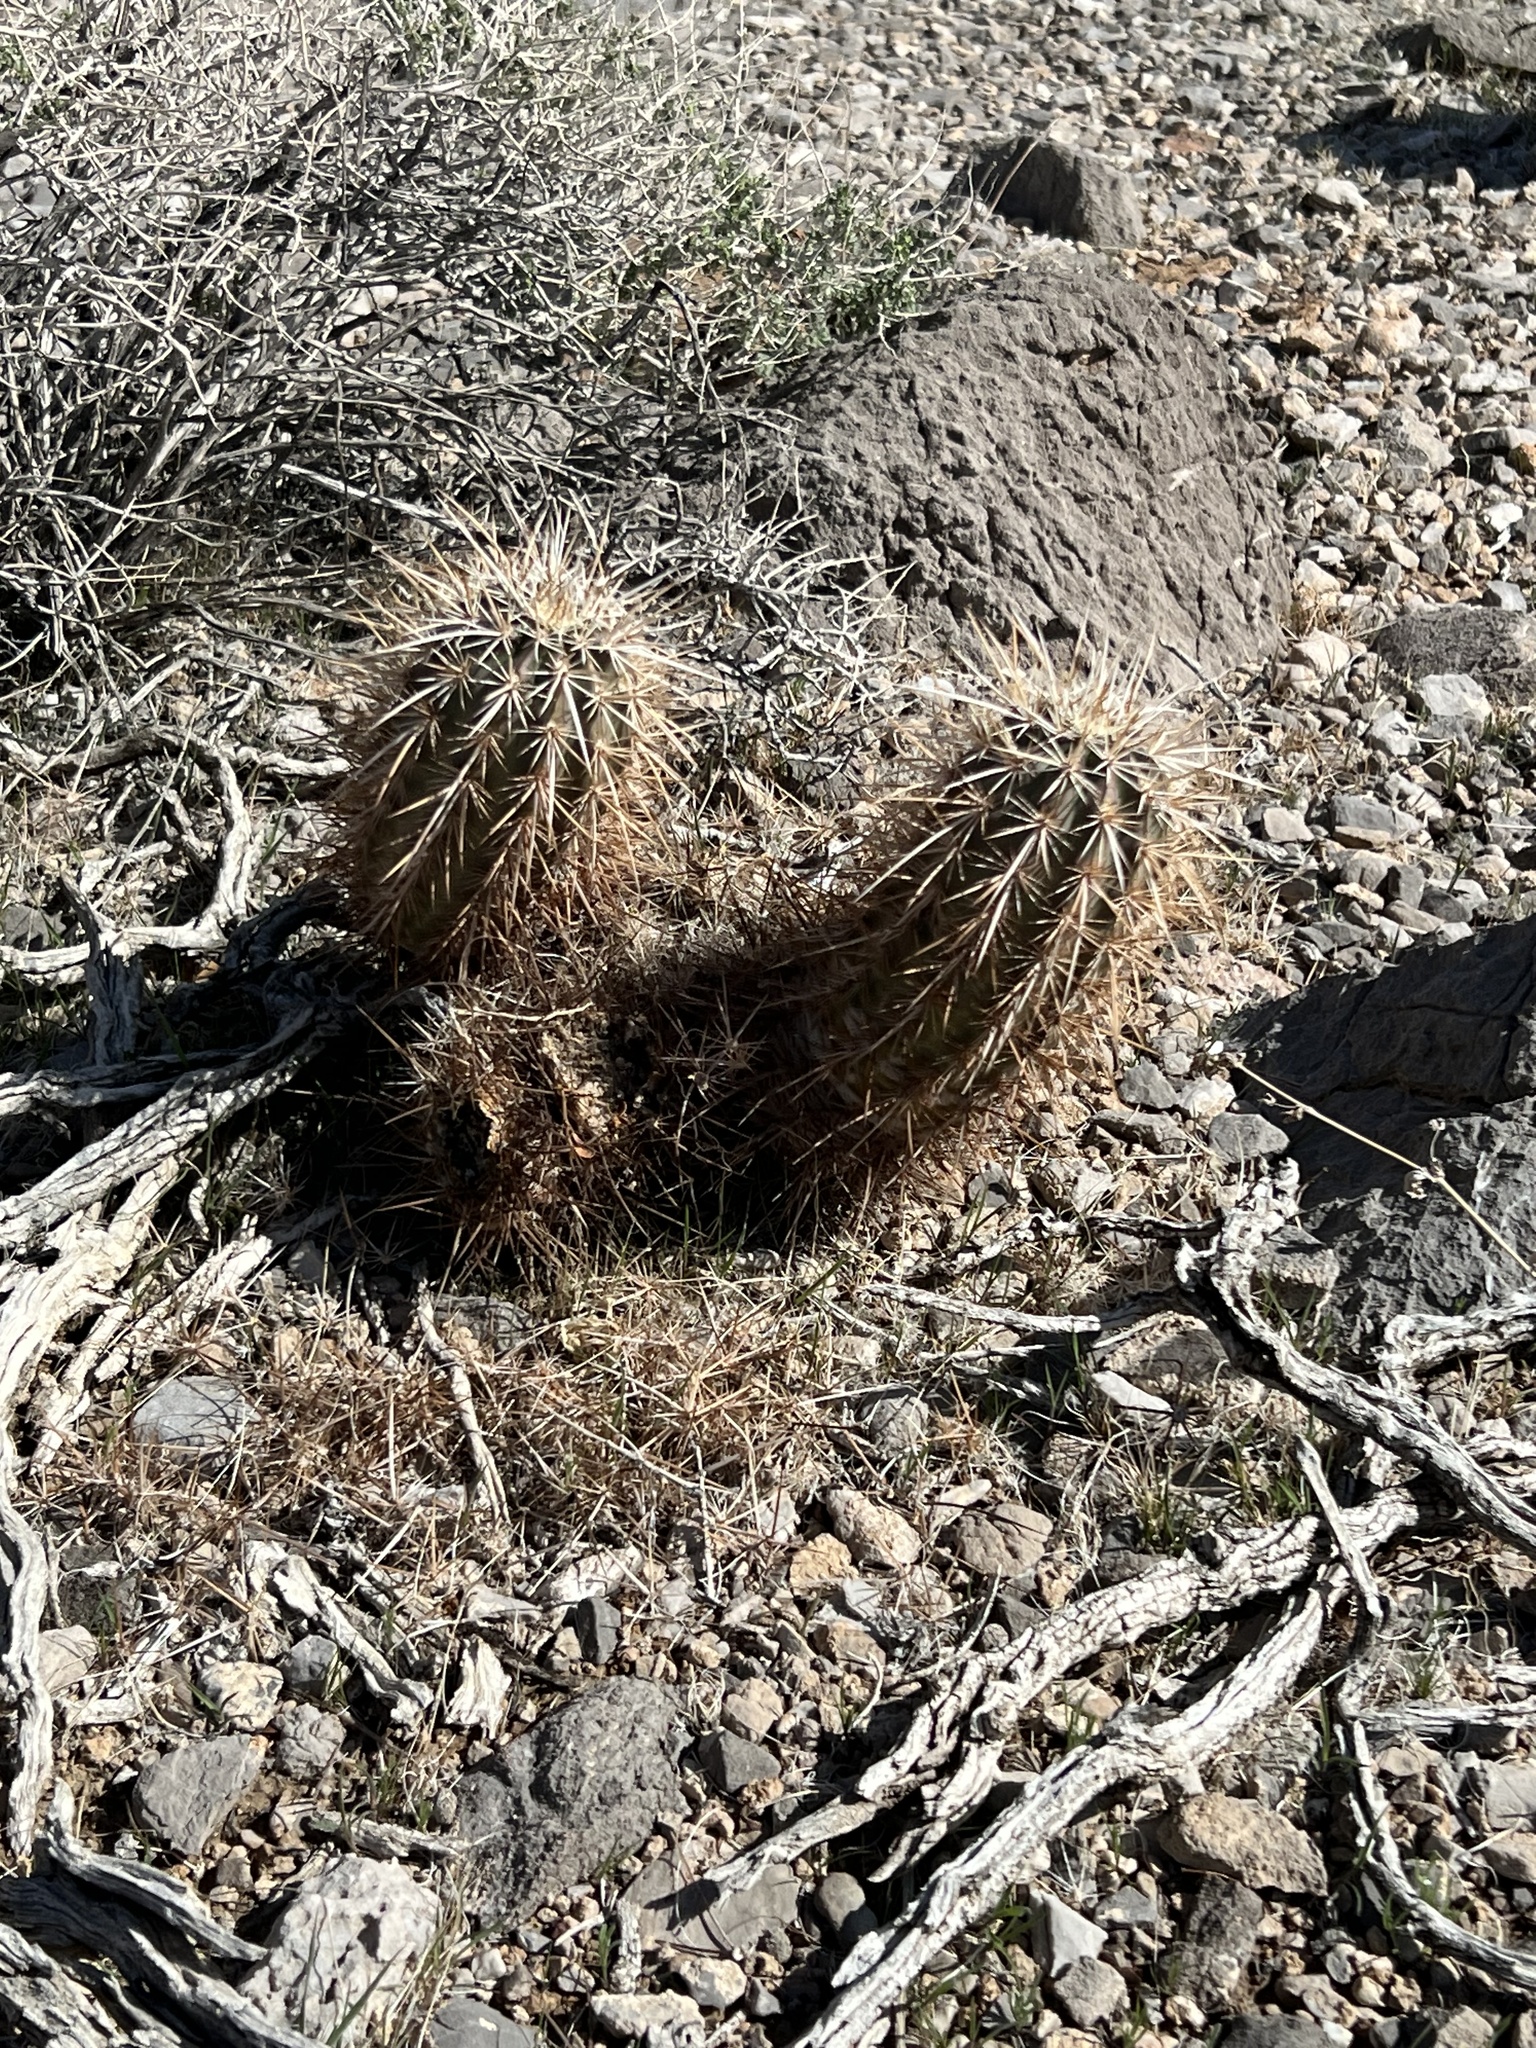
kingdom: Plantae
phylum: Tracheophyta
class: Magnoliopsida
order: Caryophyllales
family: Cactaceae
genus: Echinocereus
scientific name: Echinocereus engelmannii
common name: Engelmann's hedgehog cactus
